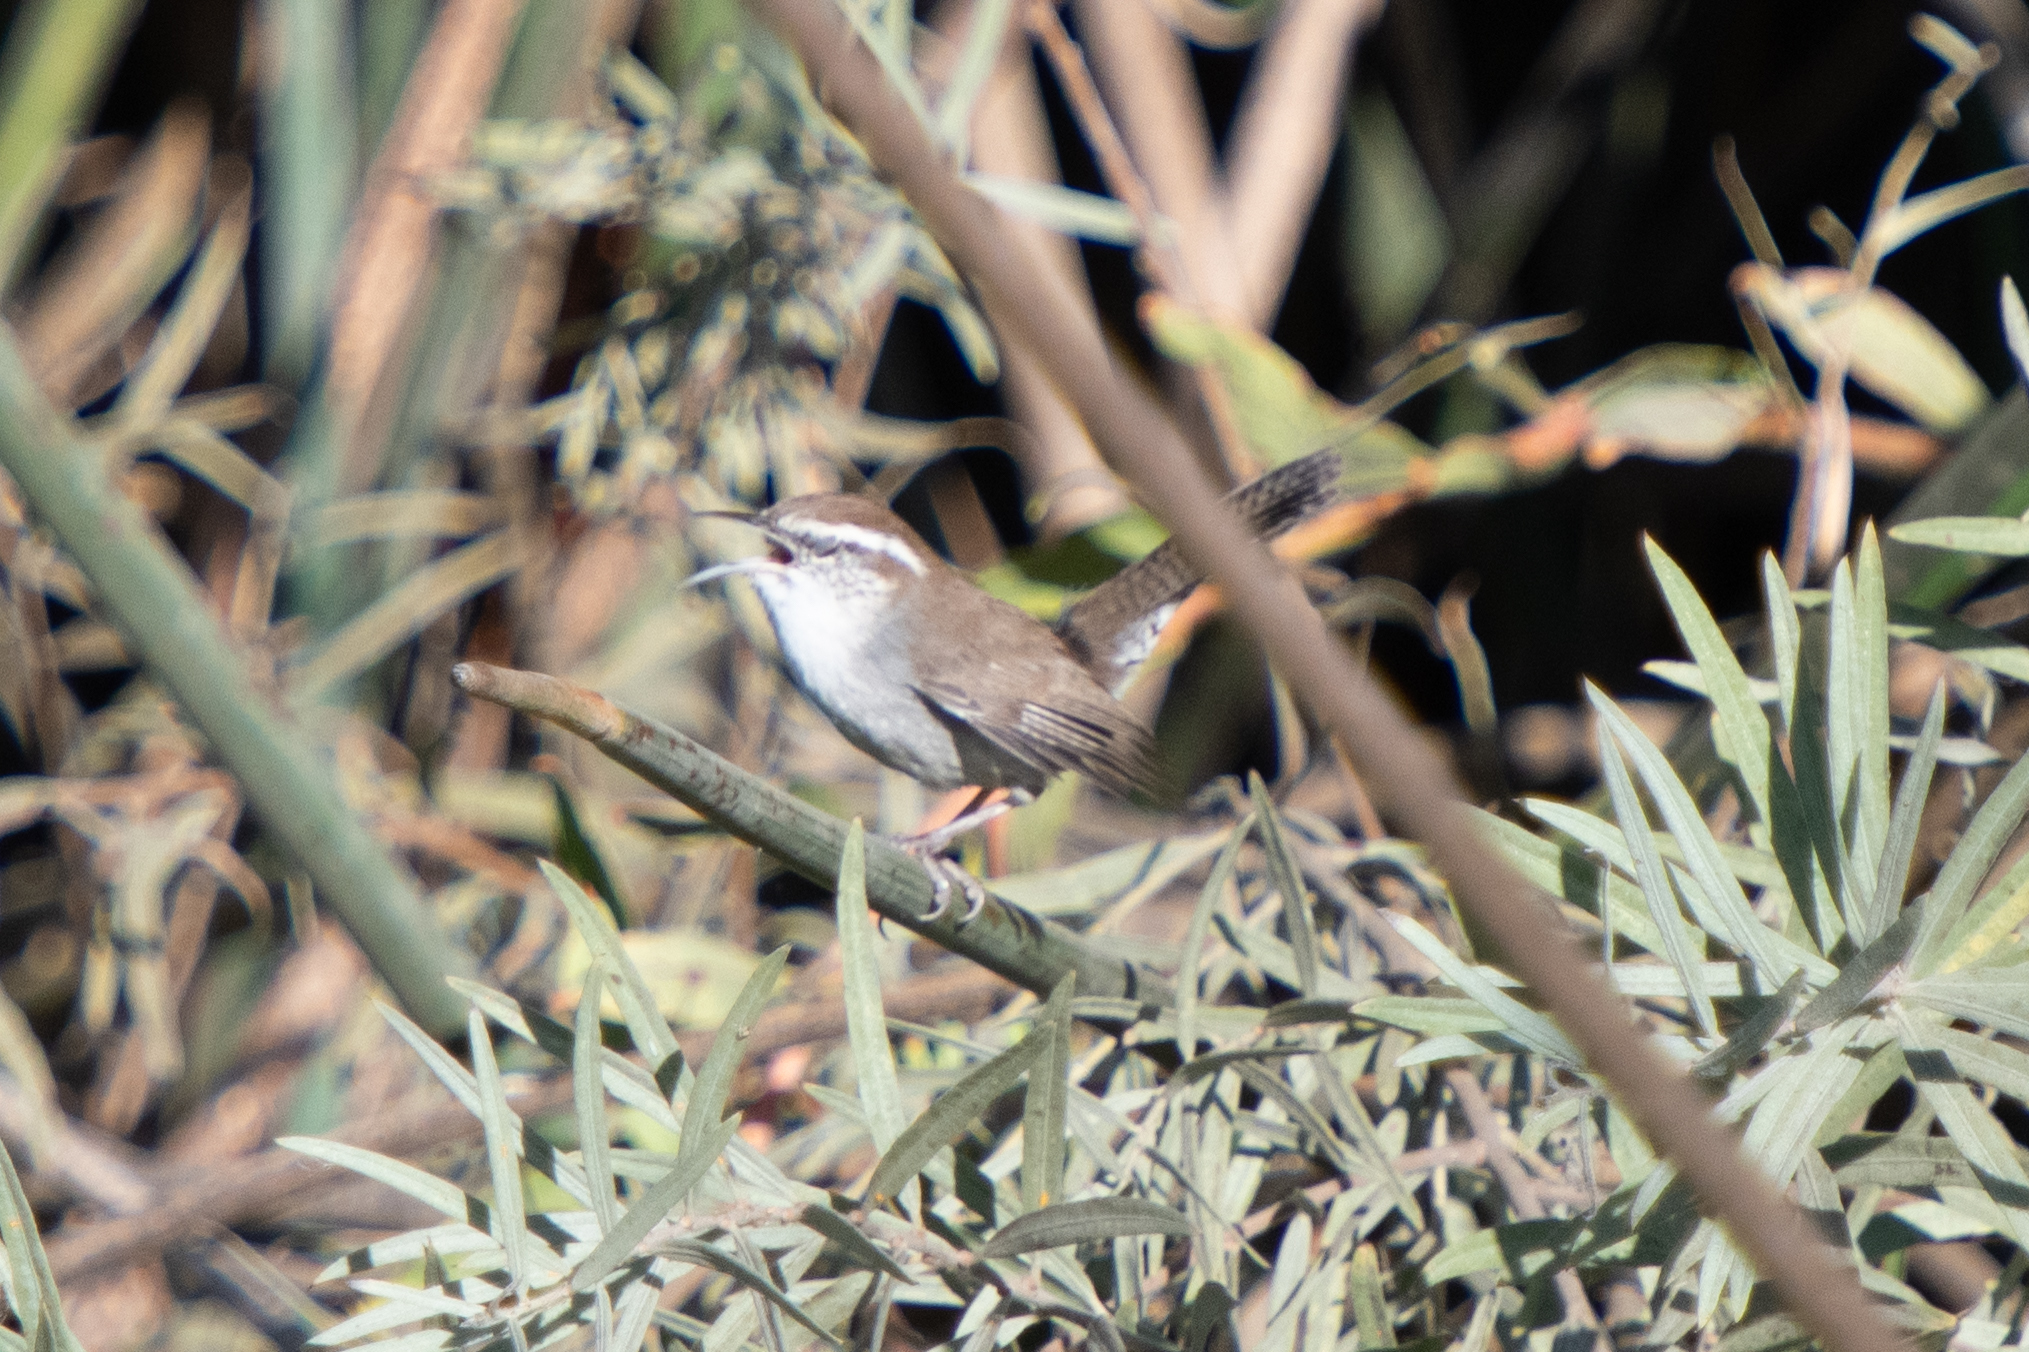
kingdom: Animalia
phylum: Chordata
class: Aves
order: Passeriformes
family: Troglodytidae
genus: Thryomanes
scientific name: Thryomanes bewickii
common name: Bewick's wren
